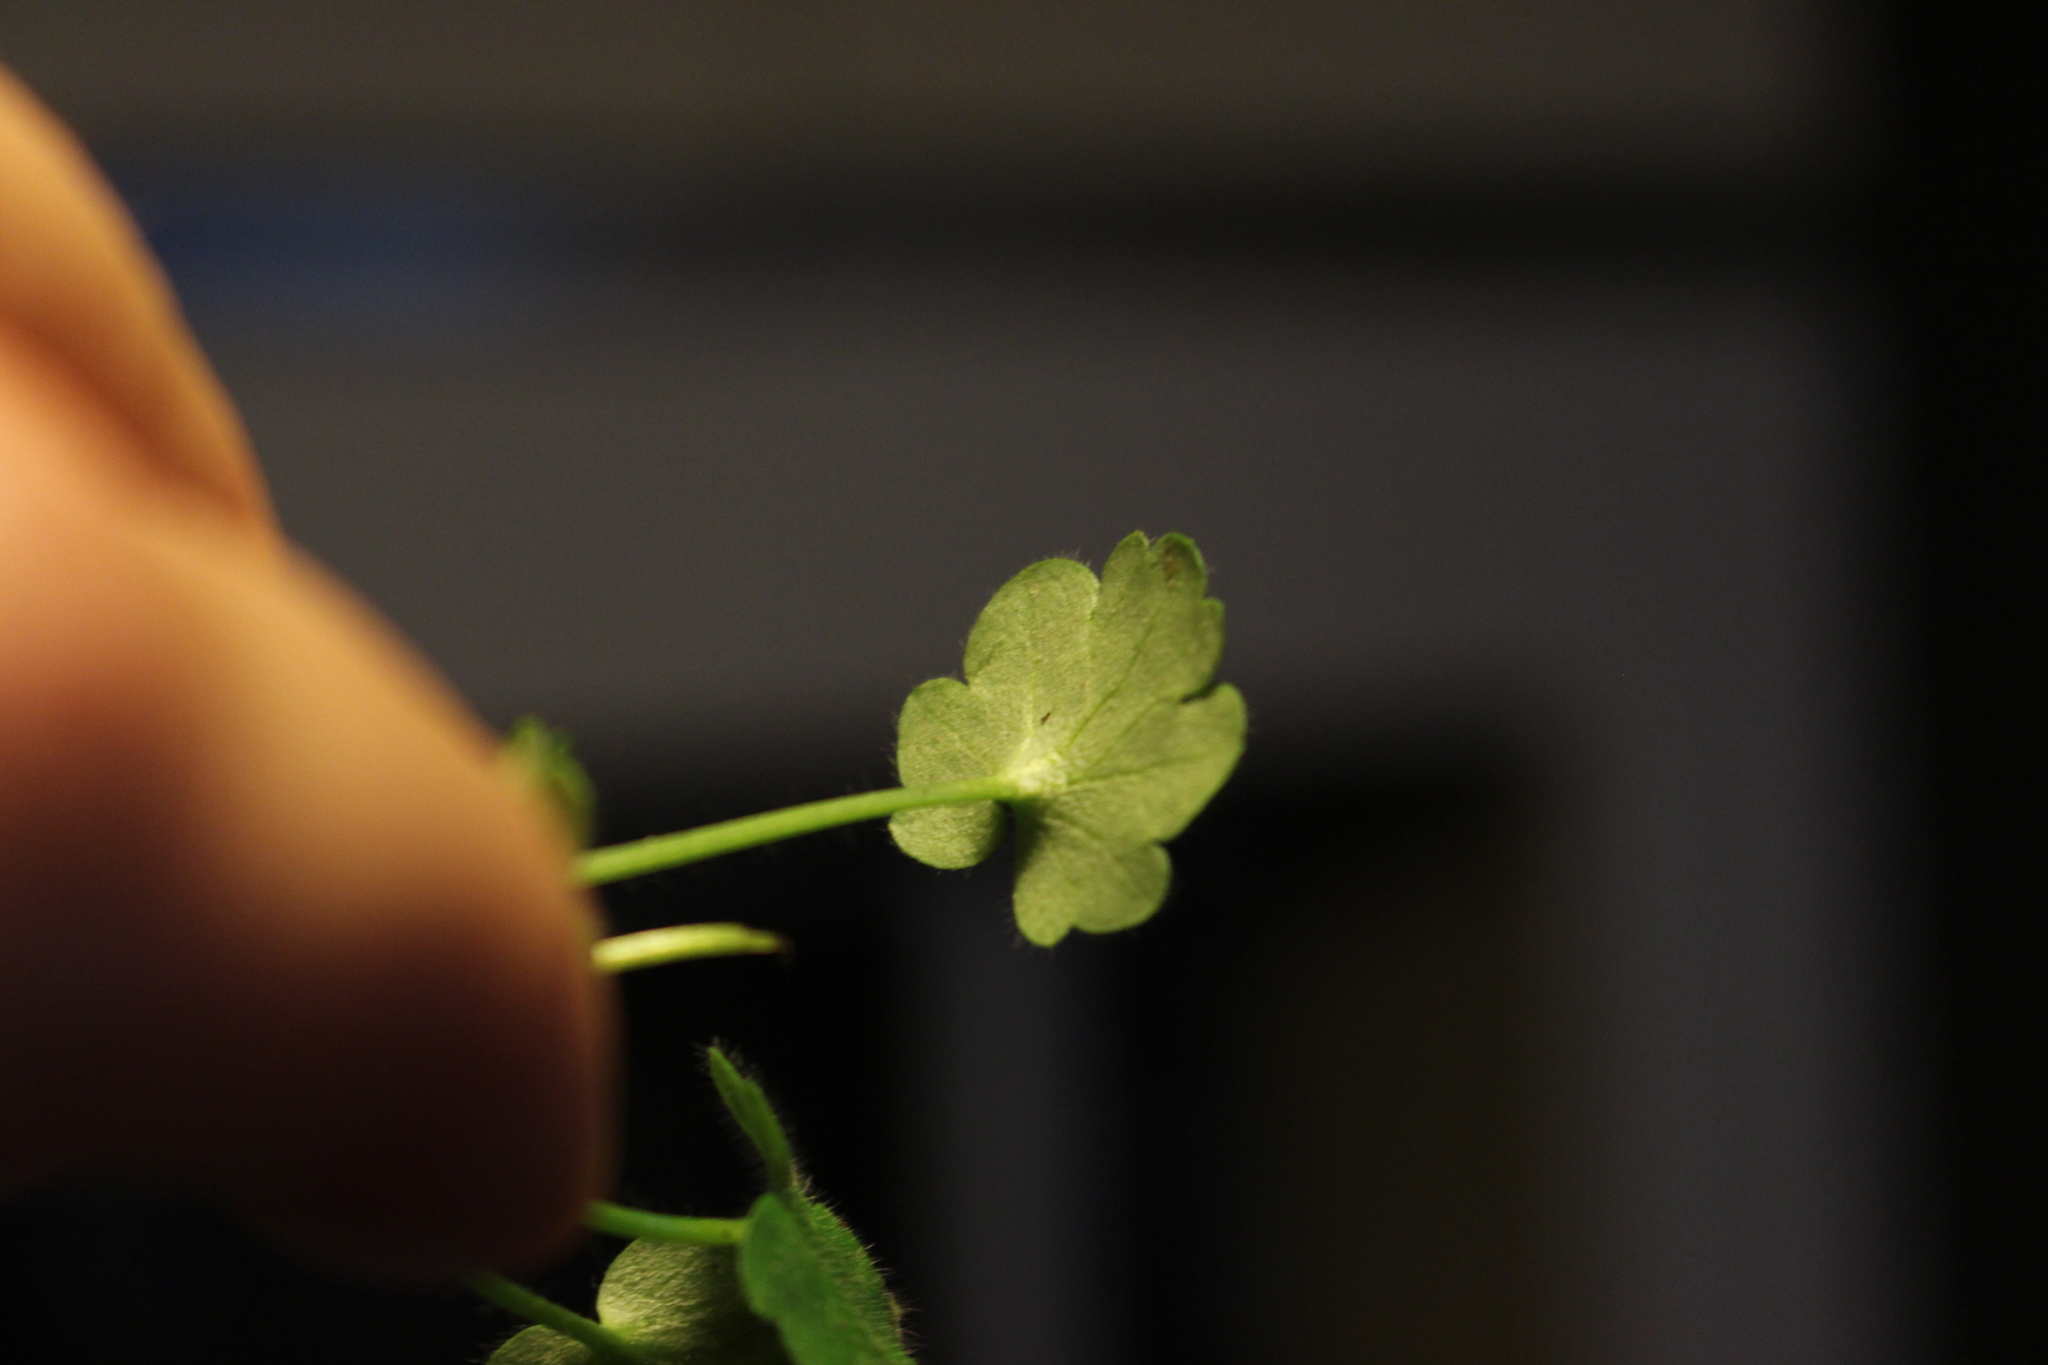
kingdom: Plantae
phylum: Tracheophyta
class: Magnoliopsida
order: Geraniales
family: Geraniaceae
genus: Geranium
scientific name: Geranium molle
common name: Dove's-foot crane's-bill
